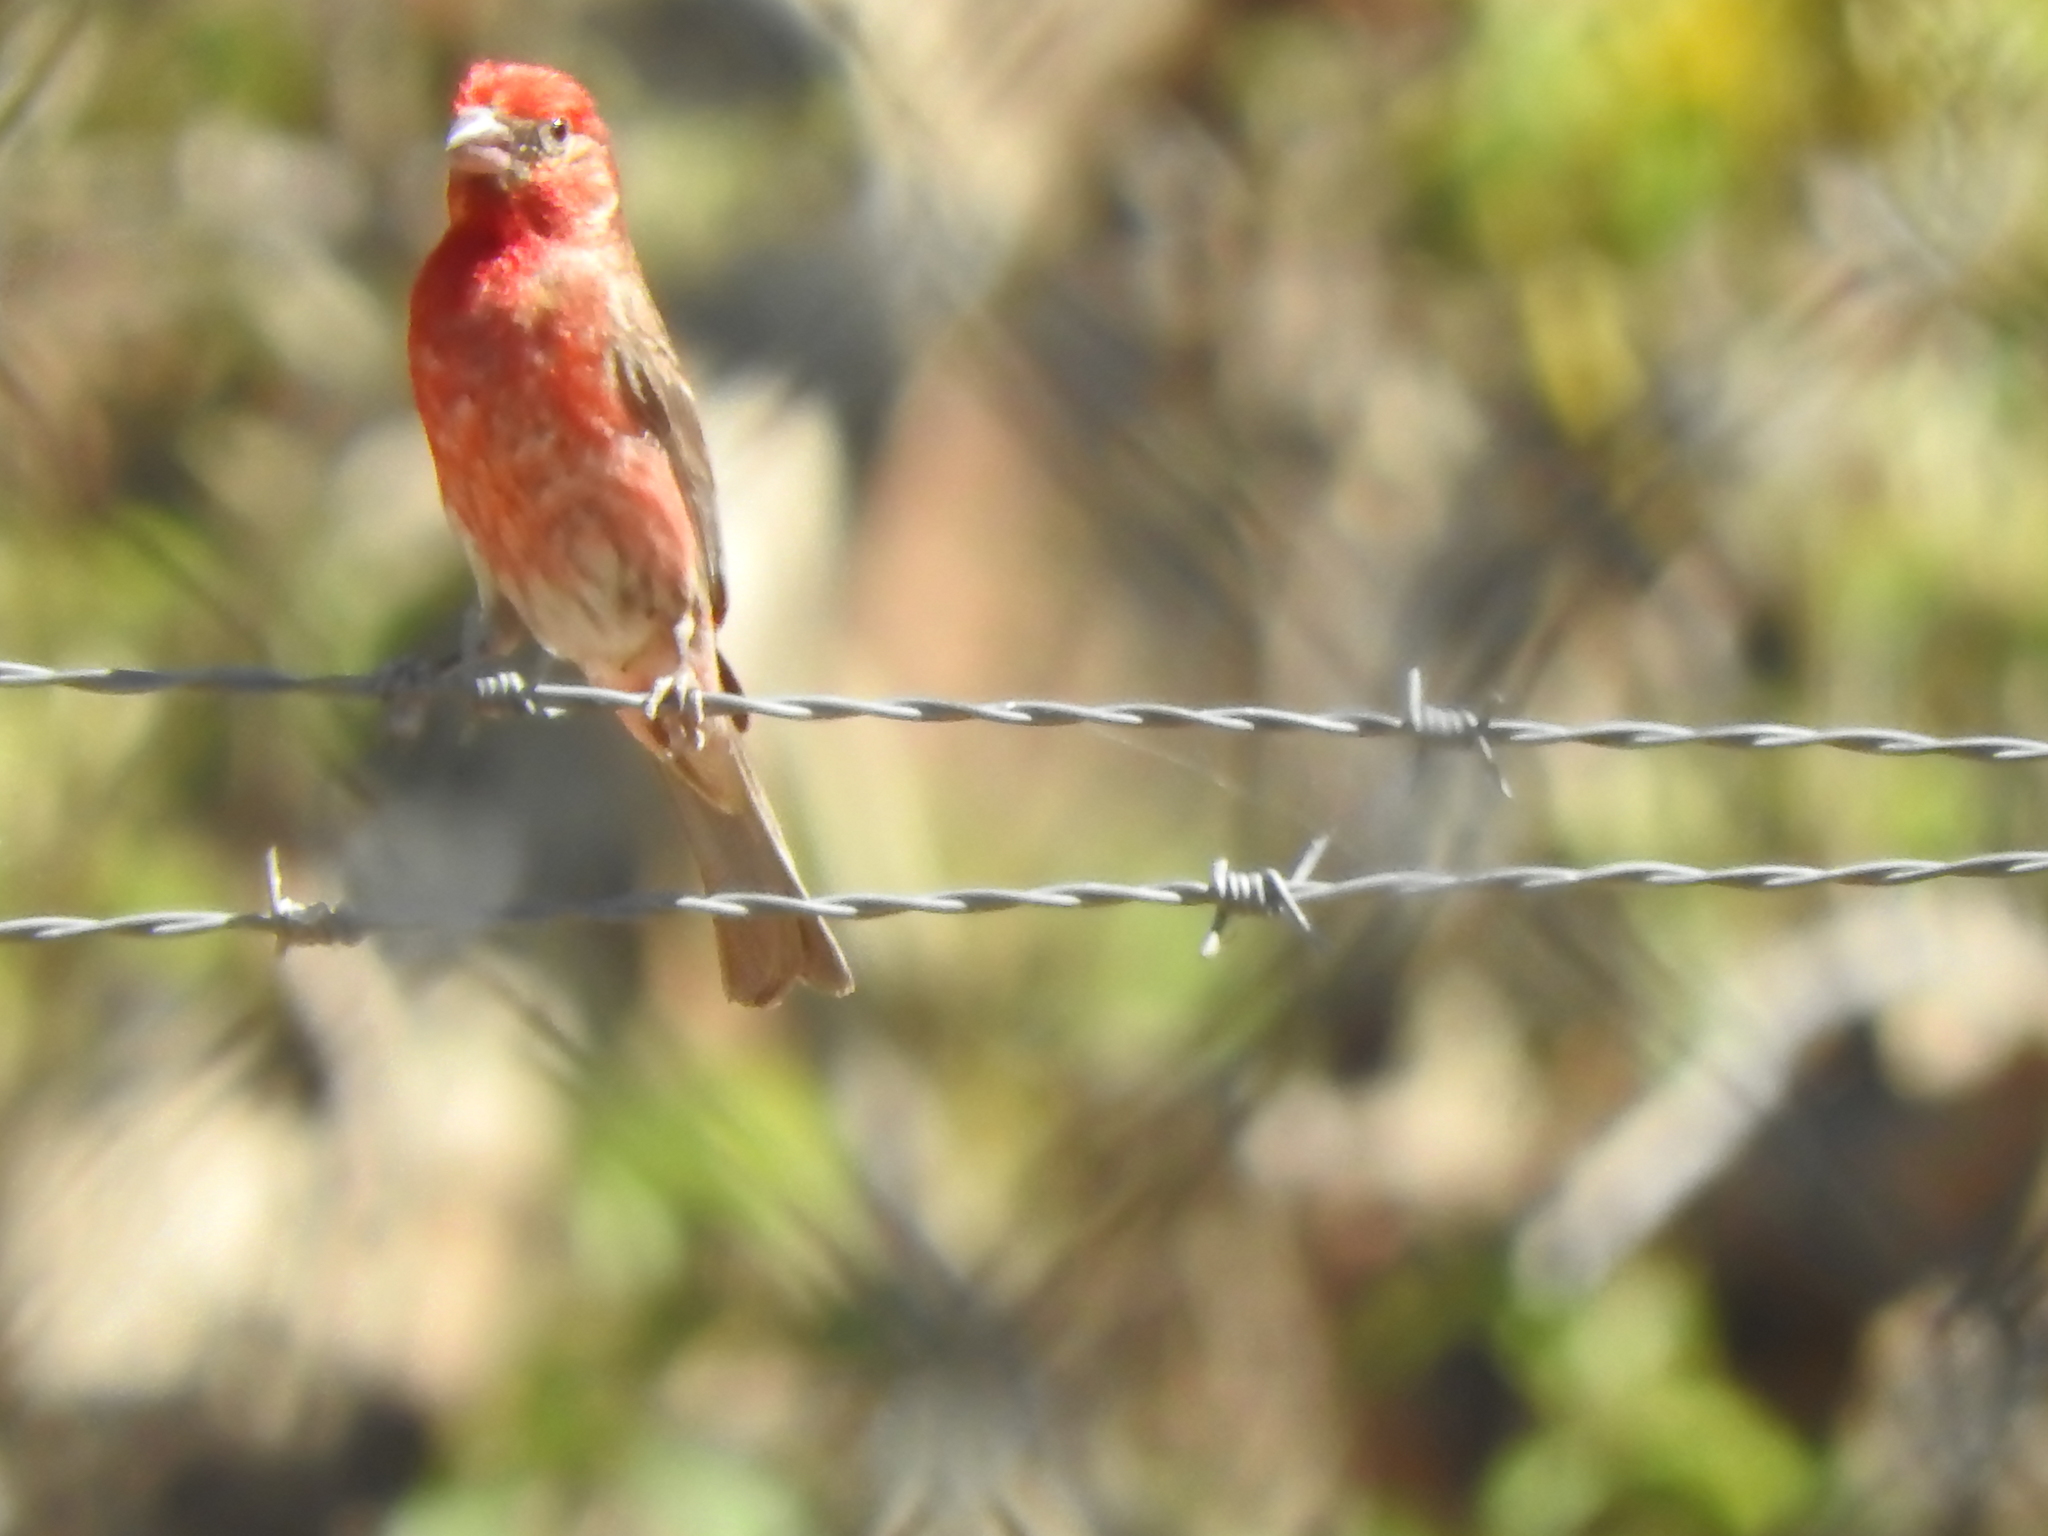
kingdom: Animalia
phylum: Chordata
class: Aves
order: Passeriformes
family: Fringillidae
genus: Haemorhous
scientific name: Haemorhous mexicanus
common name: House finch
